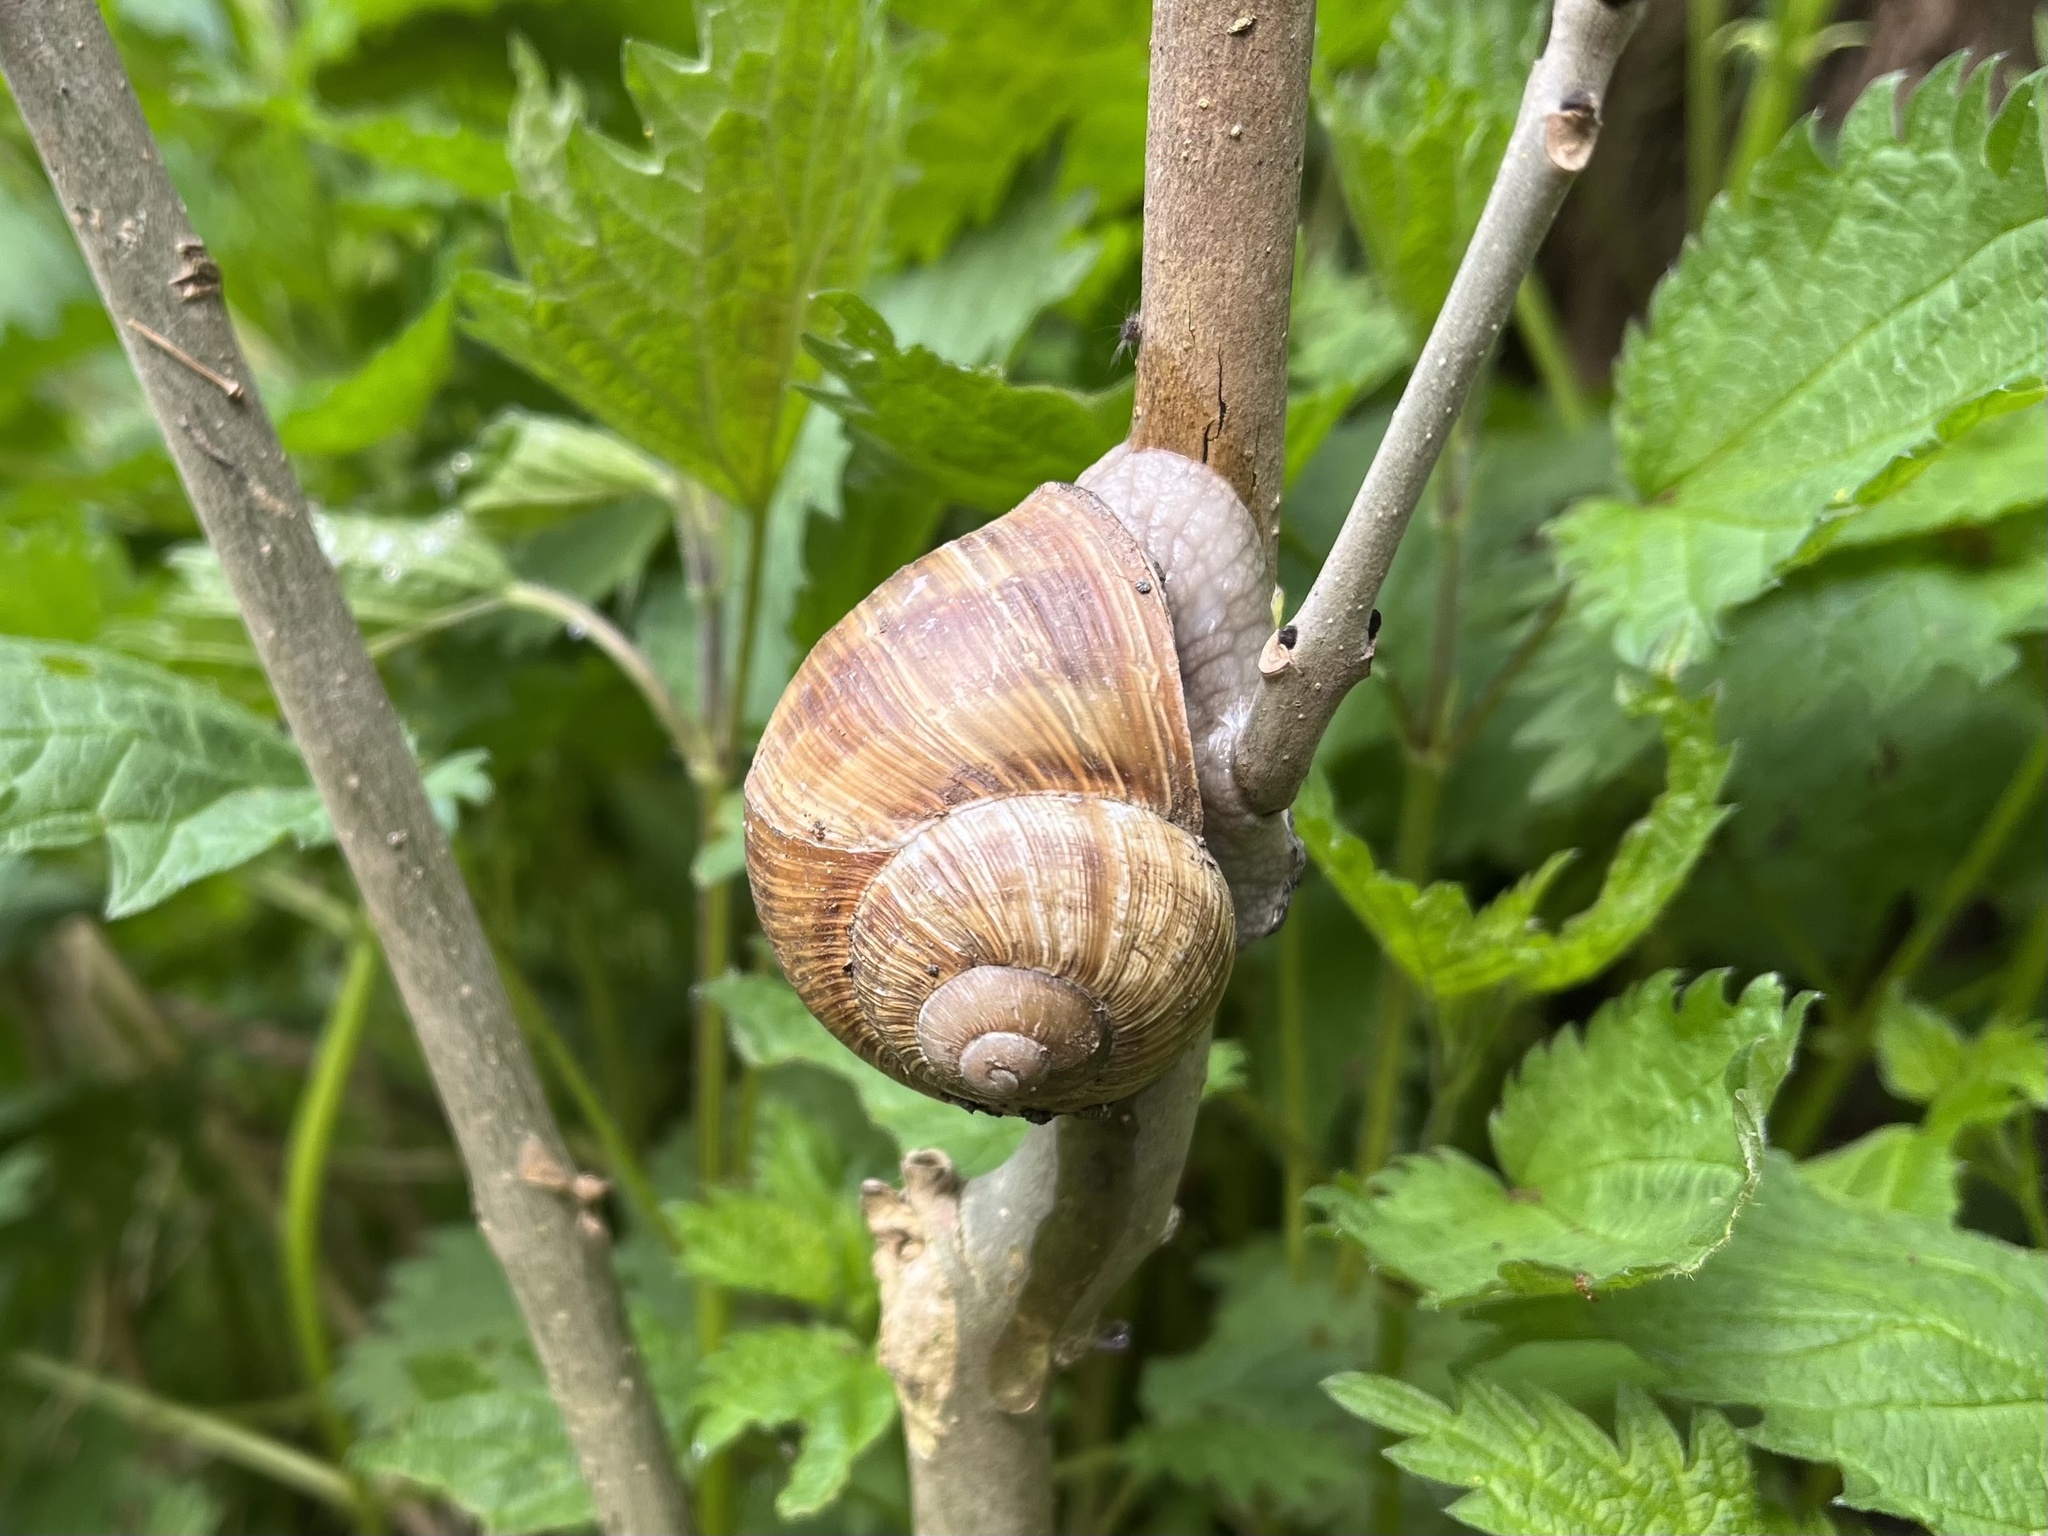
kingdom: Animalia
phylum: Mollusca
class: Gastropoda
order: Stylommatophora
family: Helicidae
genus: Helix
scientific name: Helix pomatia
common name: Roman snail
